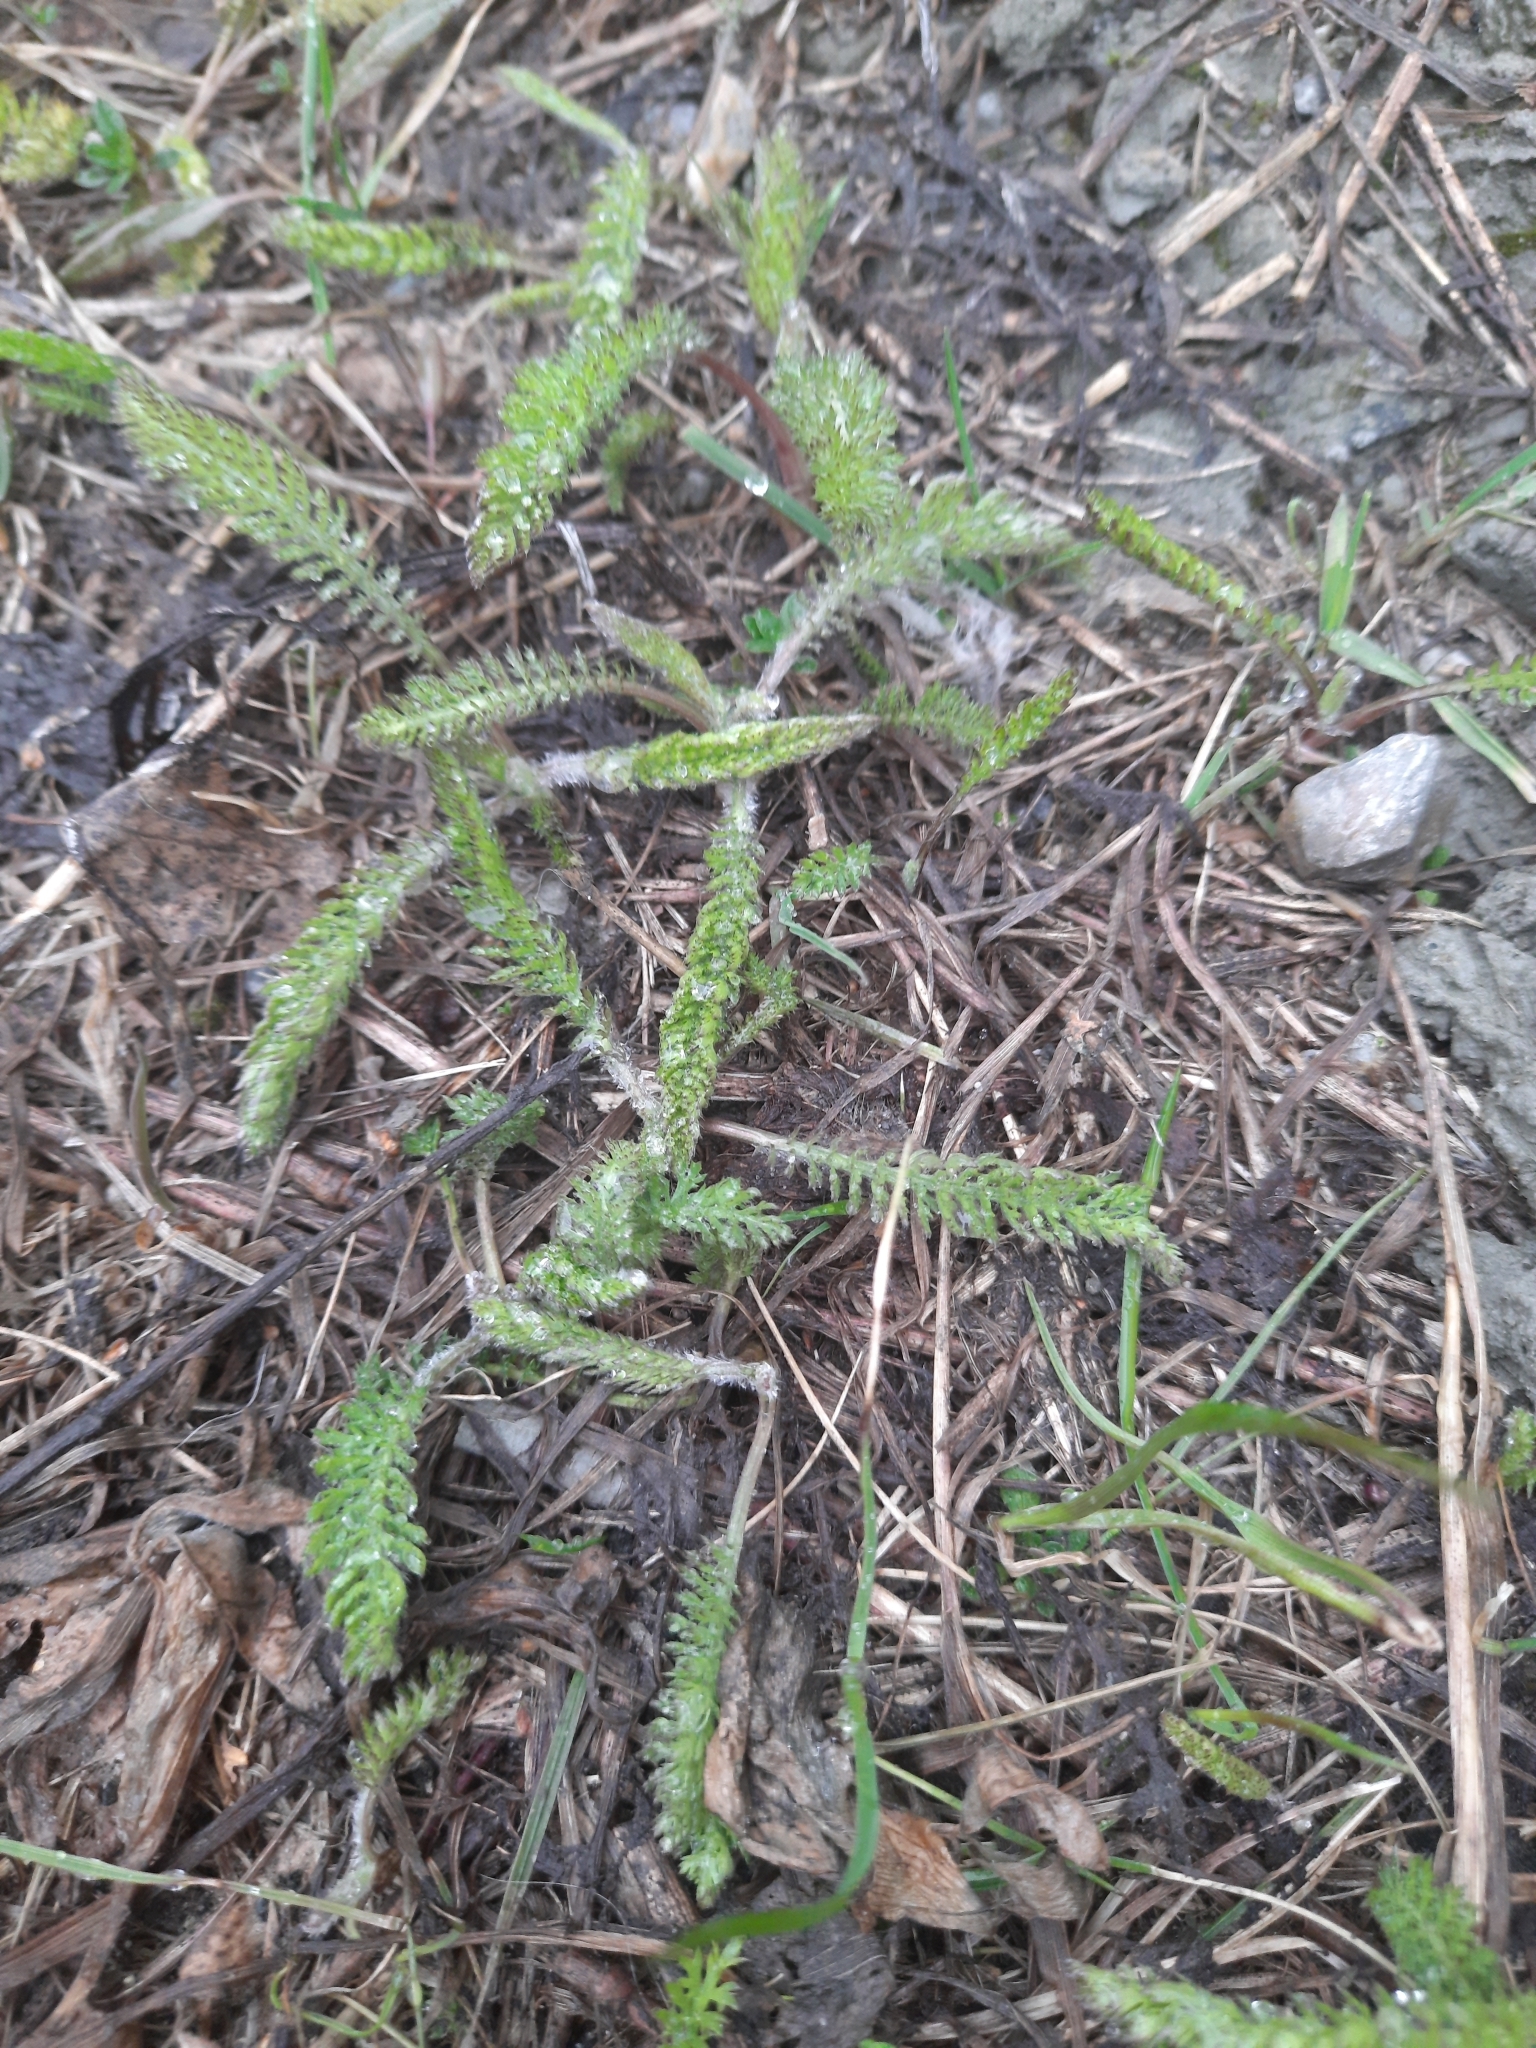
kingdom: Plantae
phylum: Tracheophyta
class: Magnoliopsida
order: Asterales
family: Asteraceae
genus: Achillea
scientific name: Achillea millefolium
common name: Yarrow
